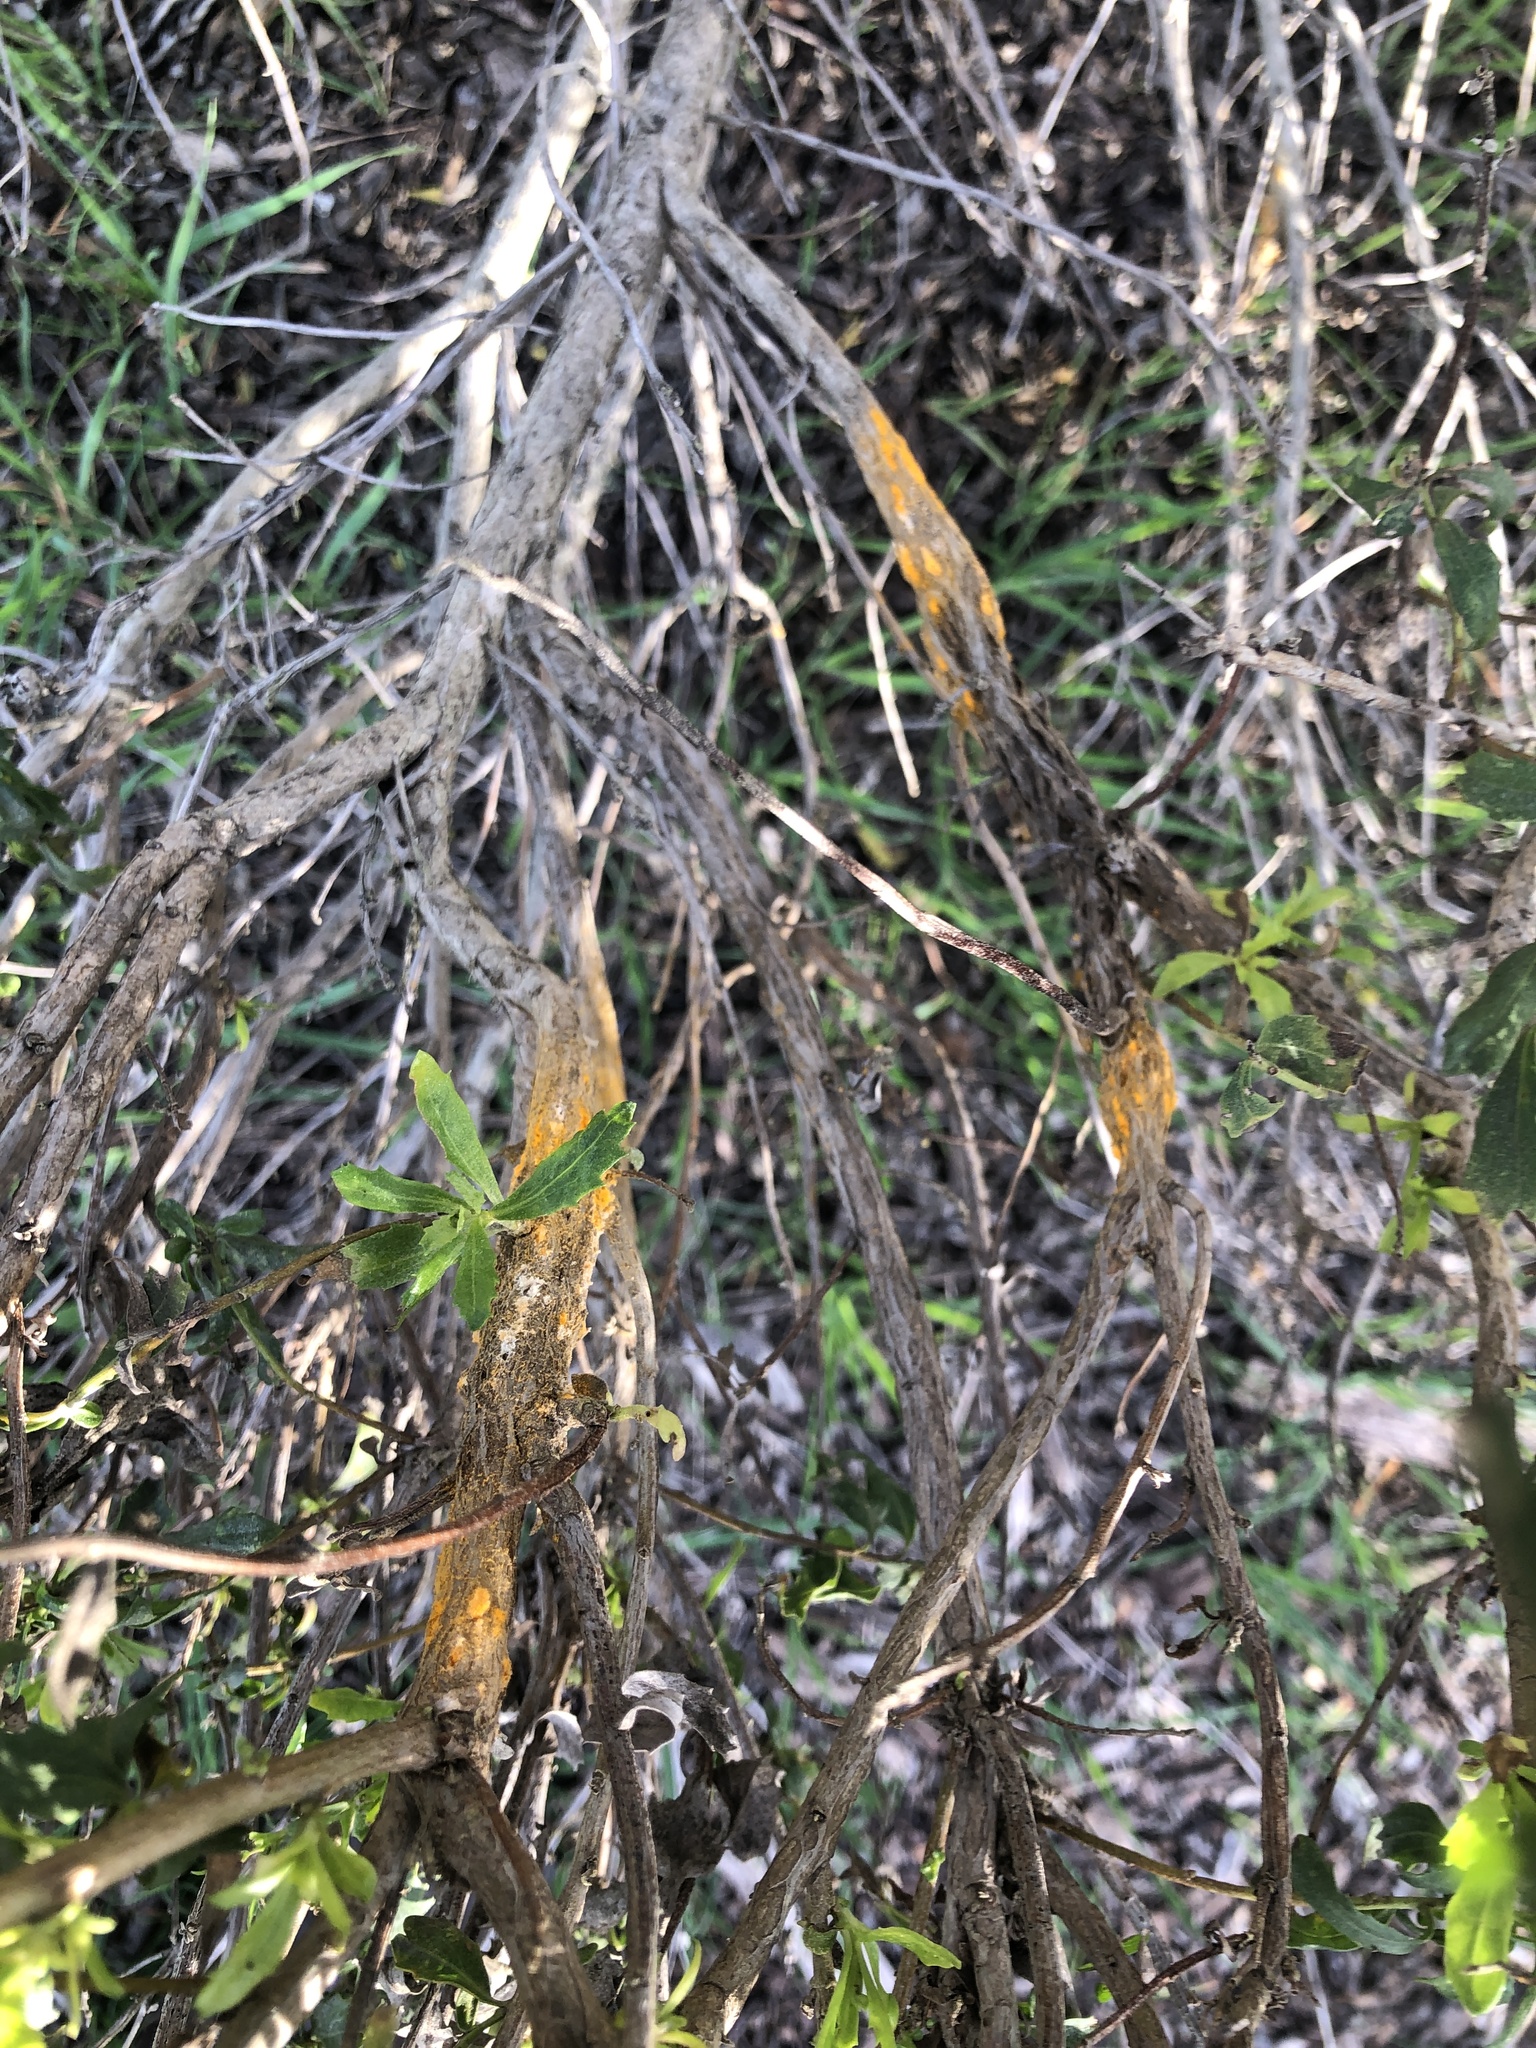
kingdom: Fungi
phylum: Basidiomycota
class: Pucciniomycetes
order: Pucciniales
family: Pucciniaceae
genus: Eriosporangium
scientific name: Eriosporangium evadens
